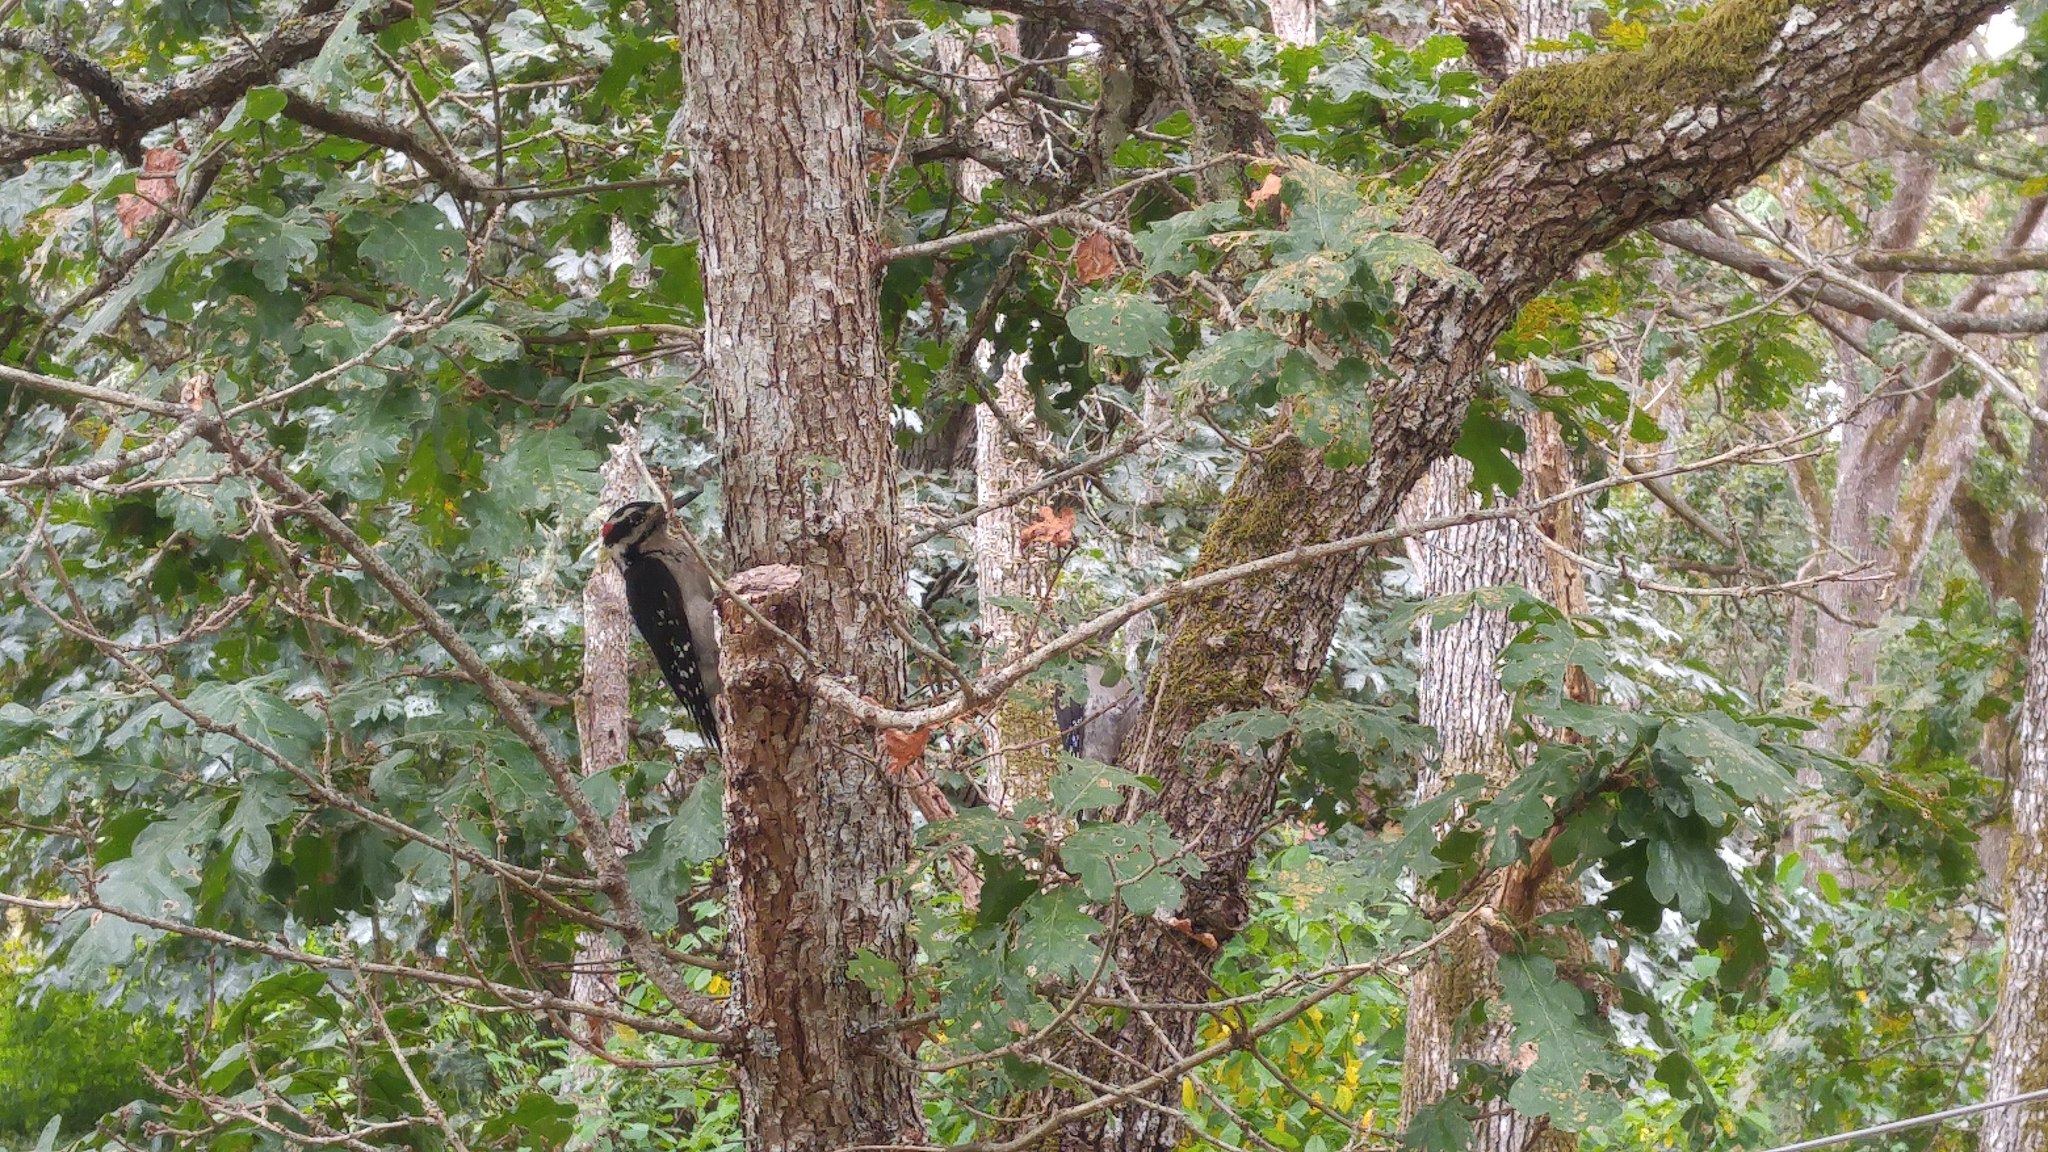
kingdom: Animalia
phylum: Chordata
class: Aves
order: Piciformes
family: Picidae
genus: Leuconotopicus
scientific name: Leuconotopicus villosus
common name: Hairy woodpecker
